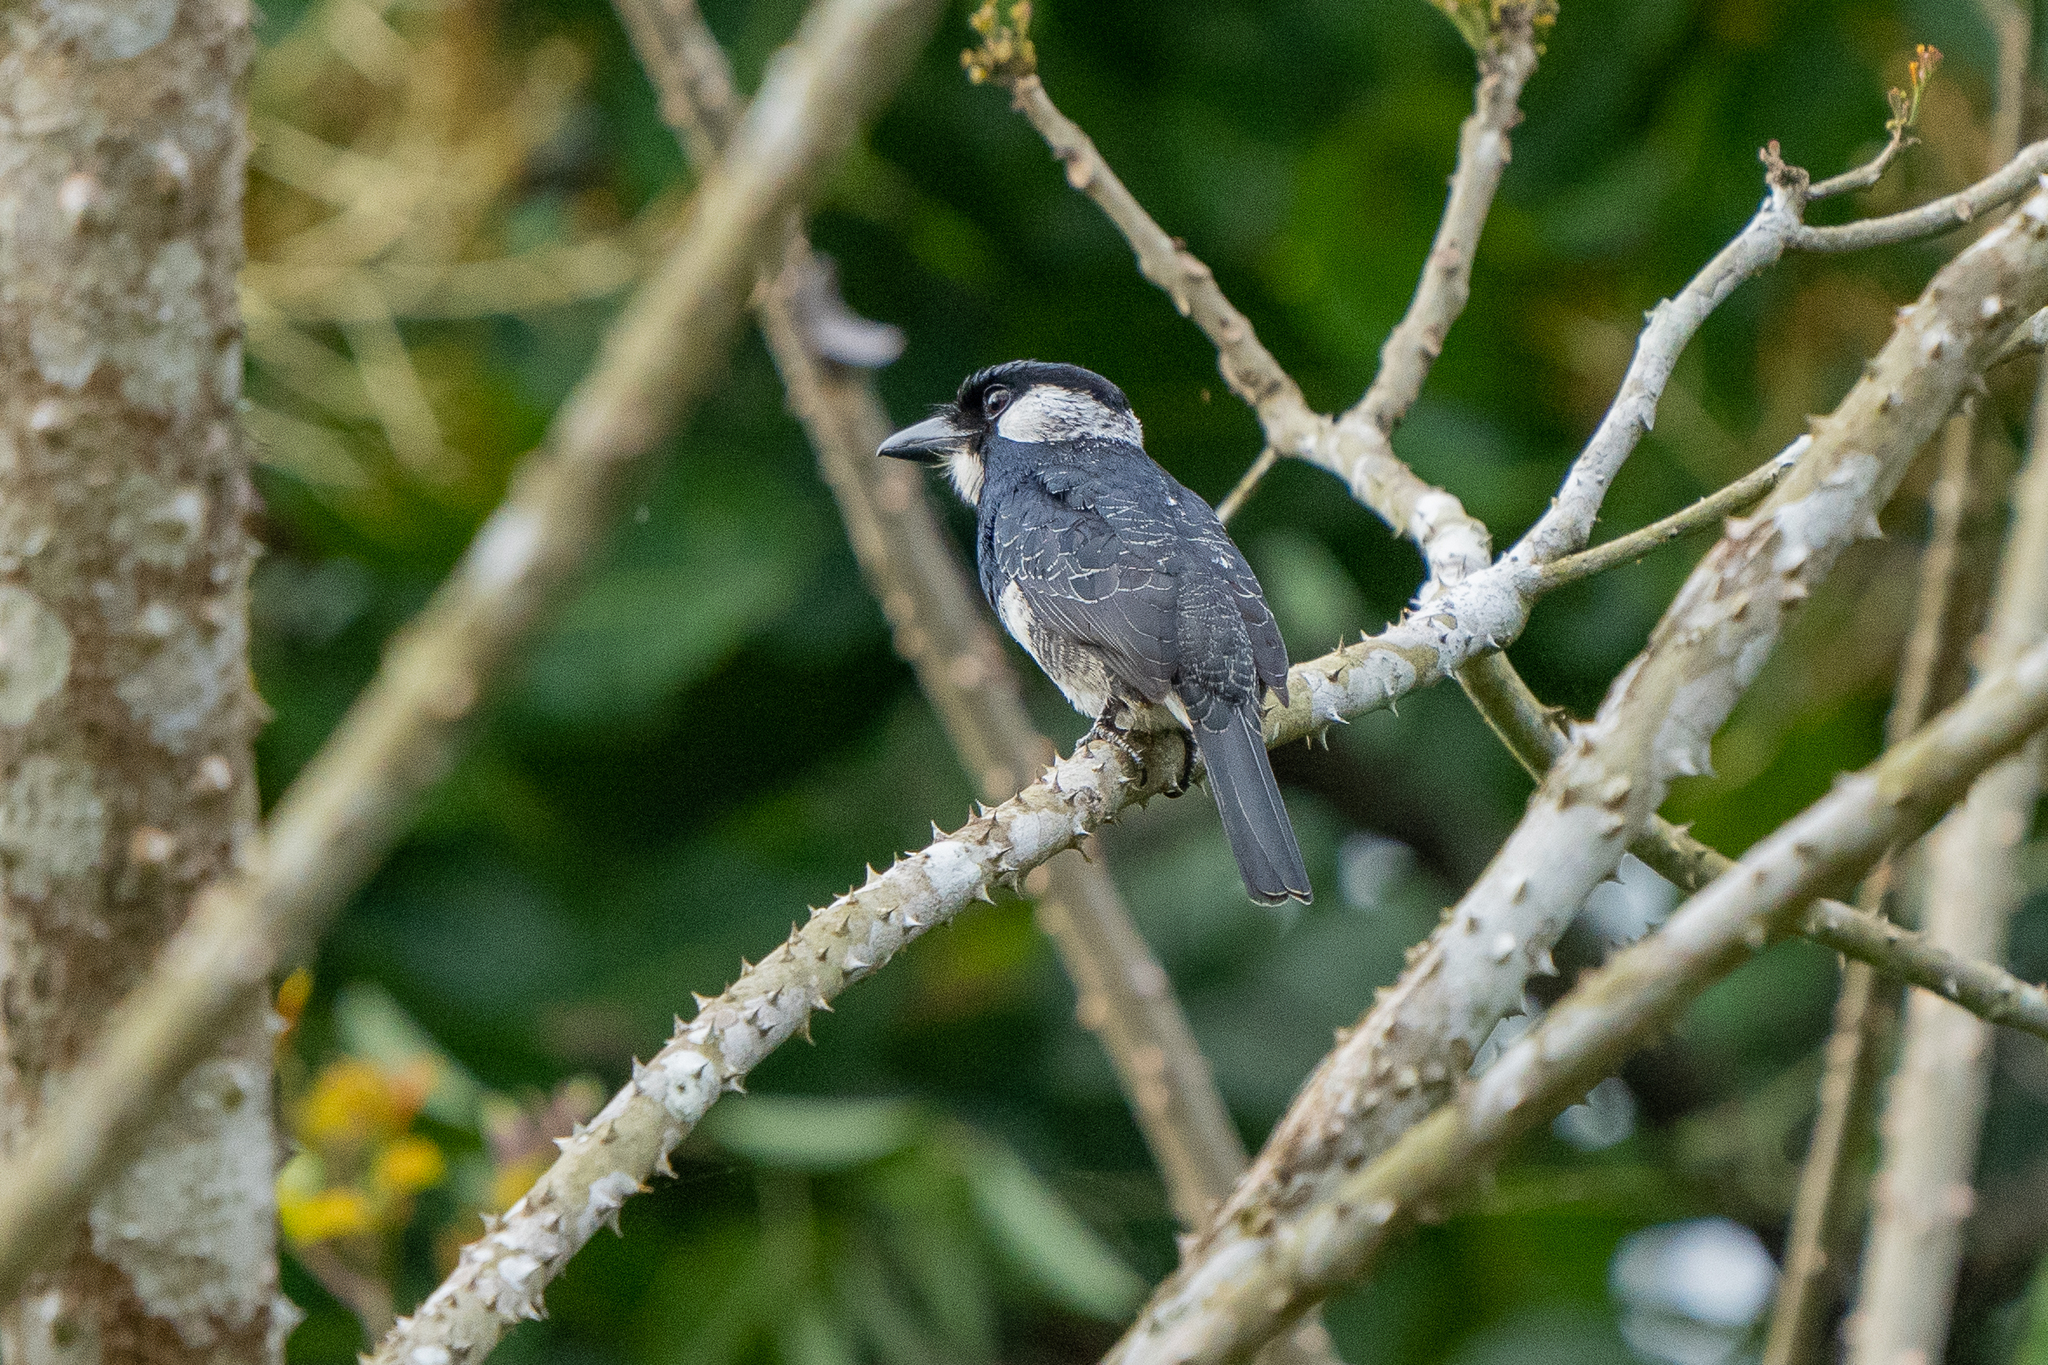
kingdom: Animalia
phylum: Chordata
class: Aves
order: Piciformes
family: Bucconidae
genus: Notharchus
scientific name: Notharchus pectoralis
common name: Black-breasted puffbird
